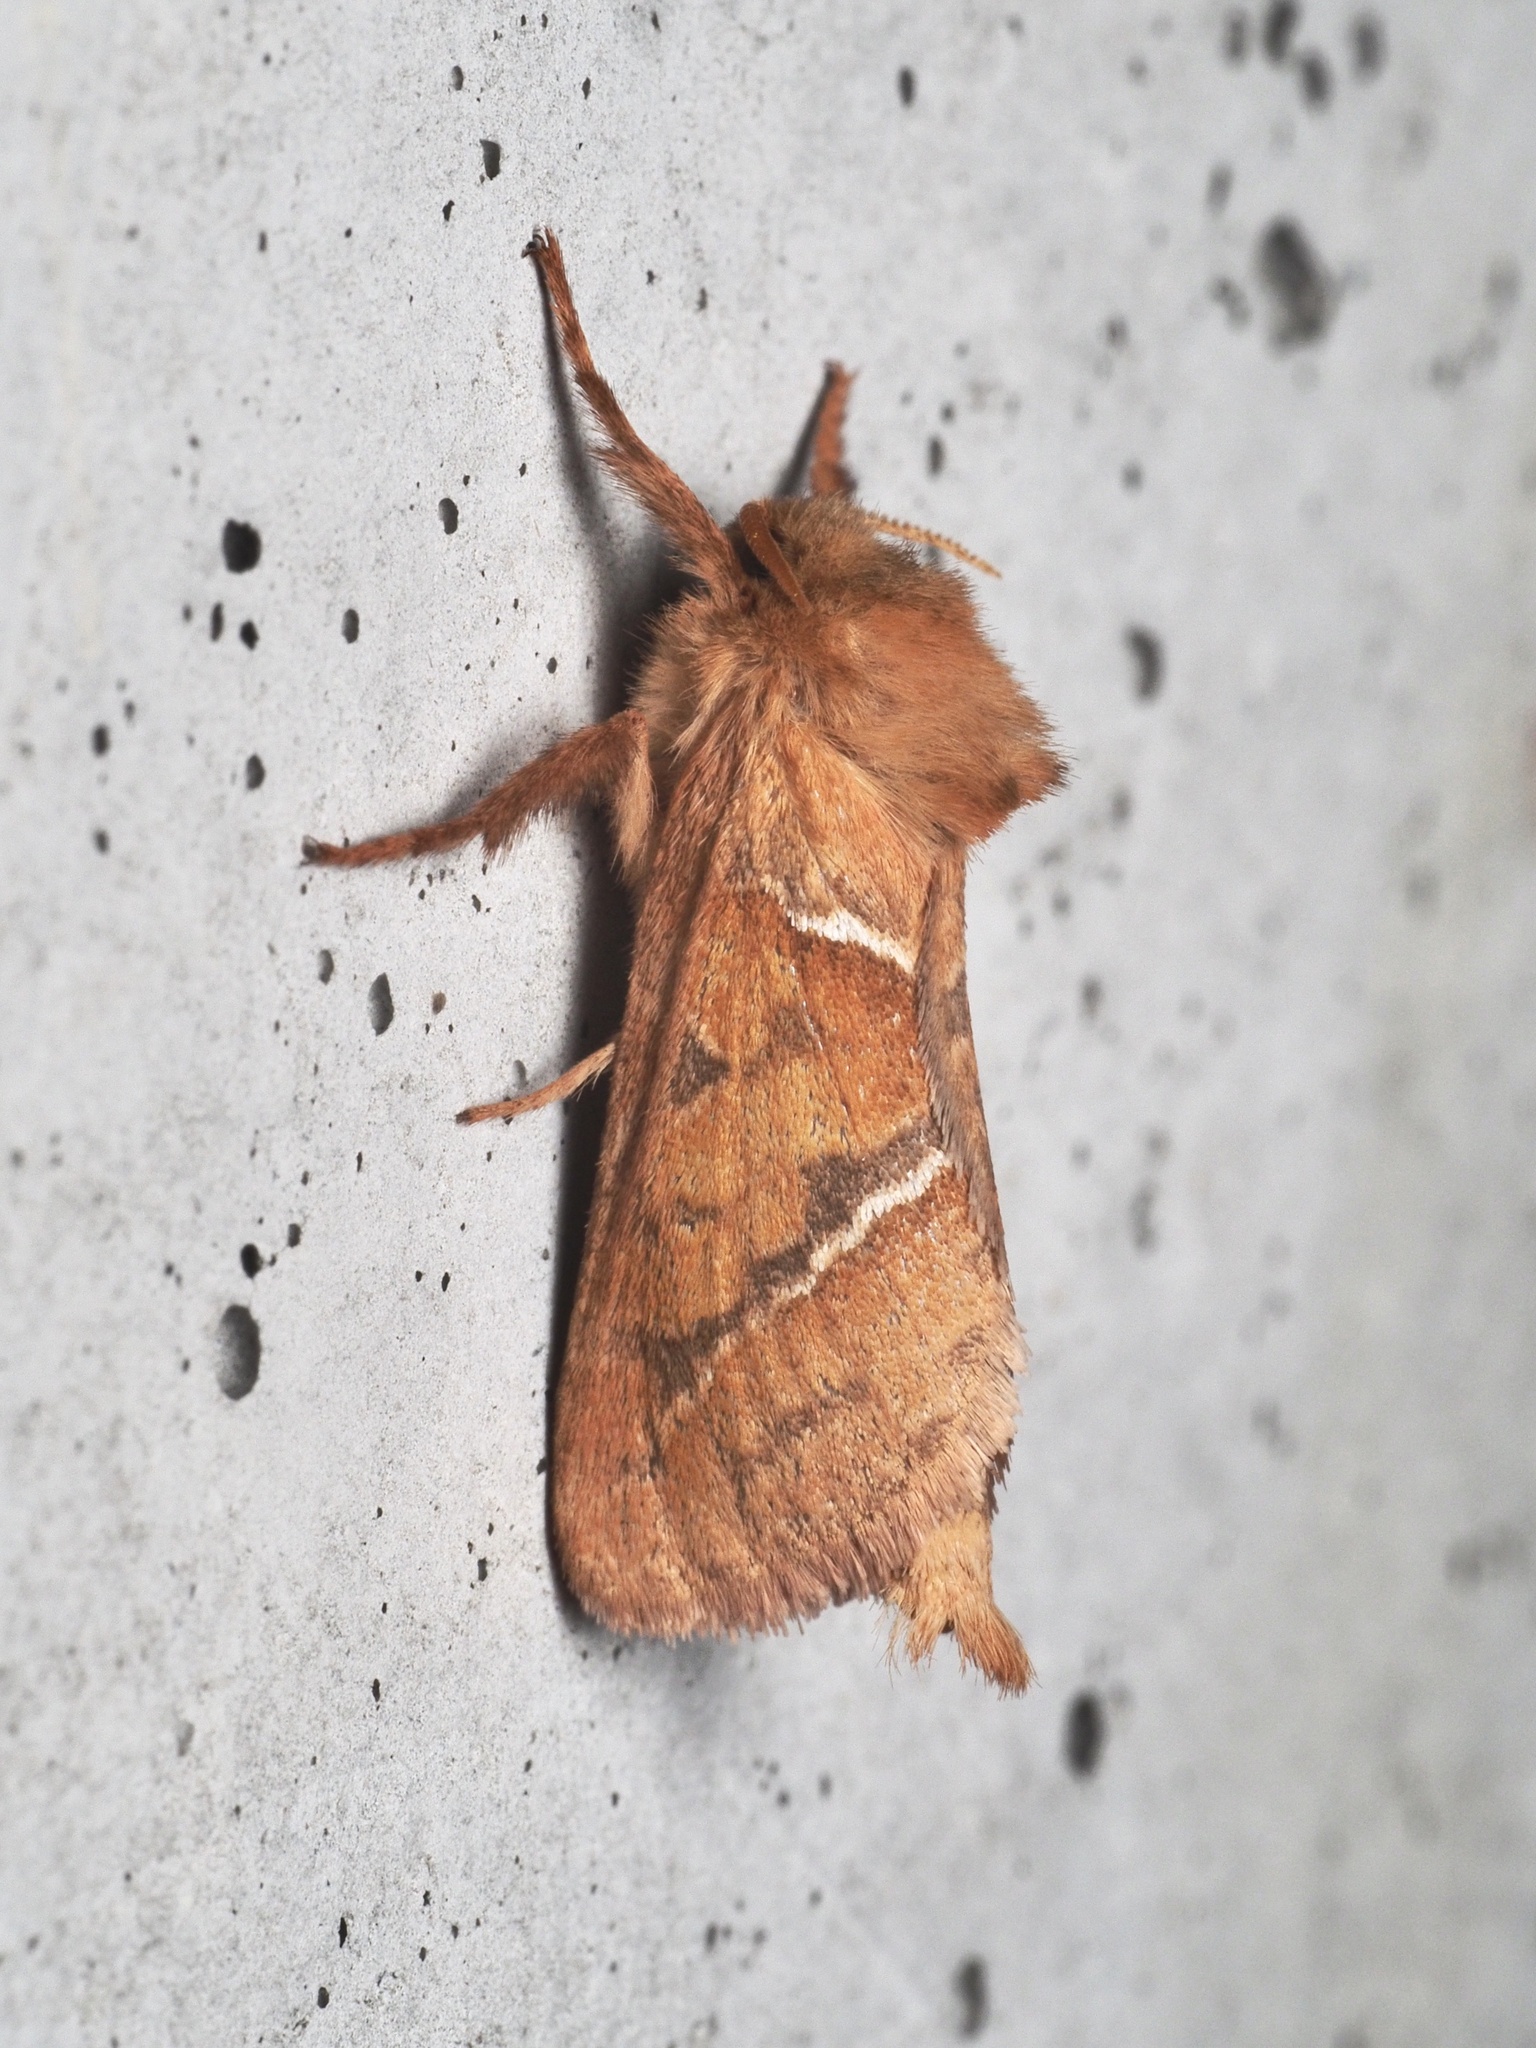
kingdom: Animalia
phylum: Arthropoda
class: Insecta
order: Lepidoptera
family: Hepialidae
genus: Triodia
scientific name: Triodia sylvina
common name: Orange swift
